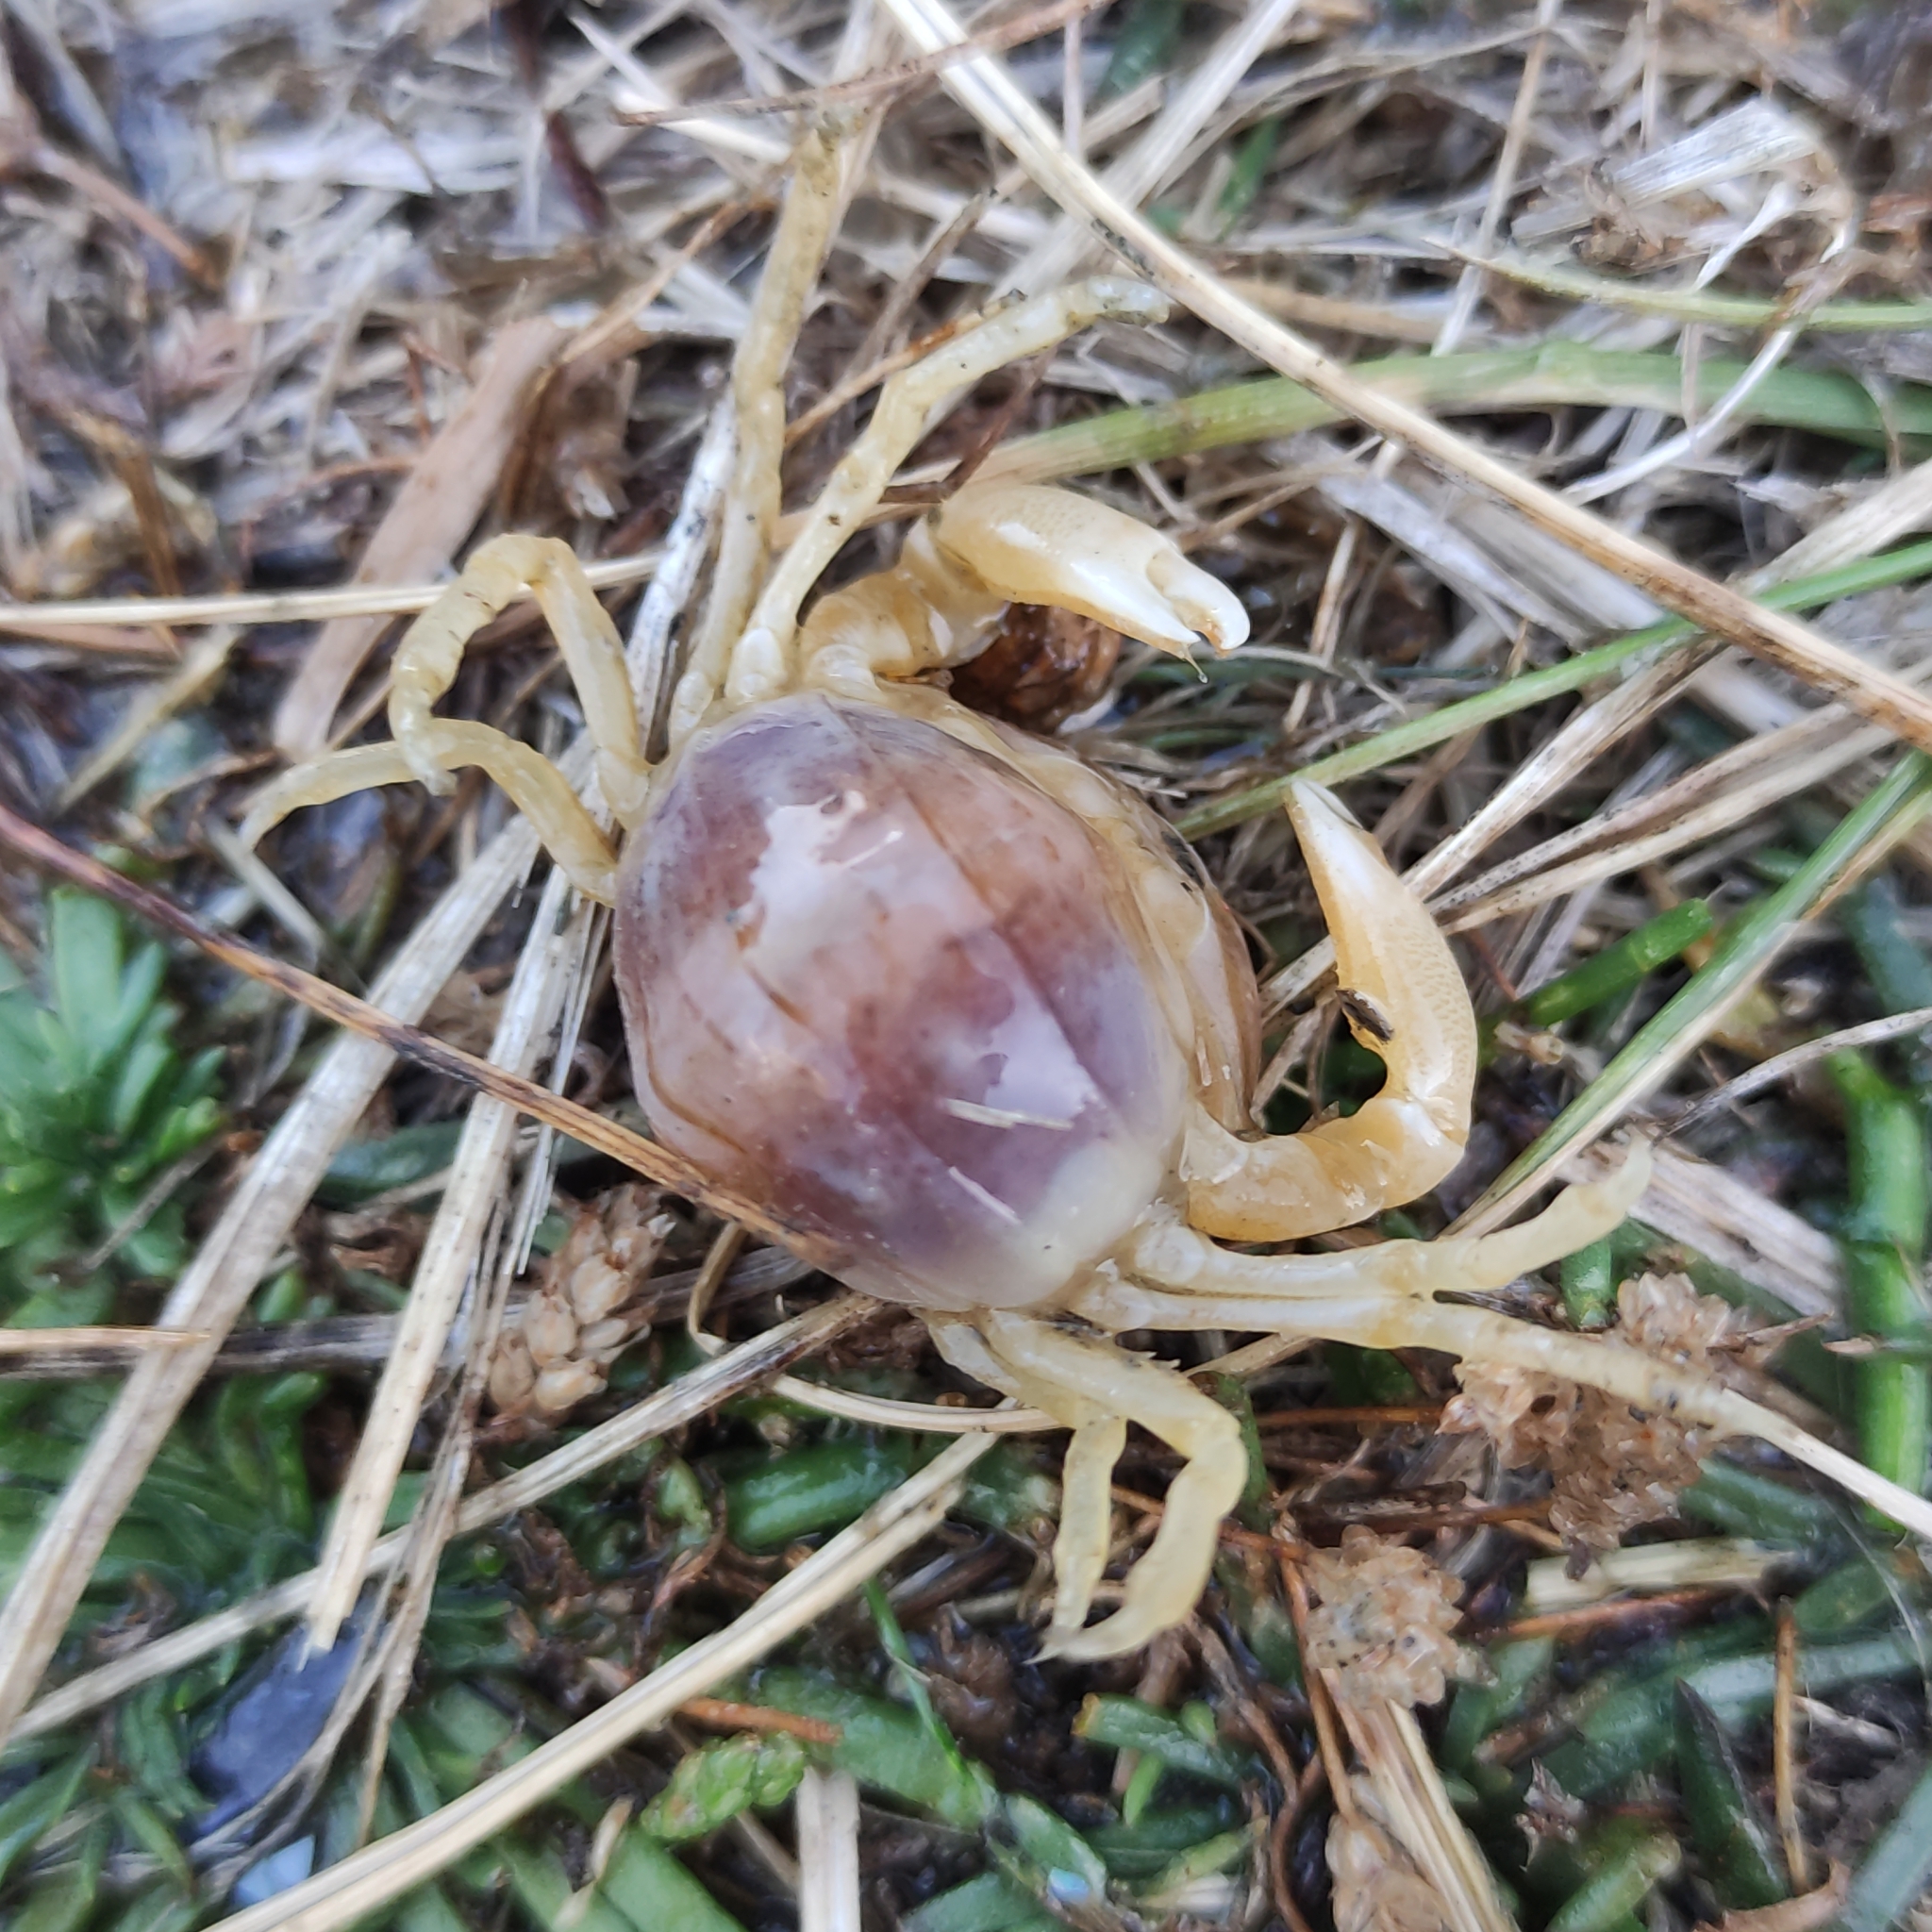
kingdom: Animalia
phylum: Arthropoda
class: Malacostraca
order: Decapoda
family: Pinnotheridae
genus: Nepinnotheres
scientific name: Nepinnotheres atrinicola
